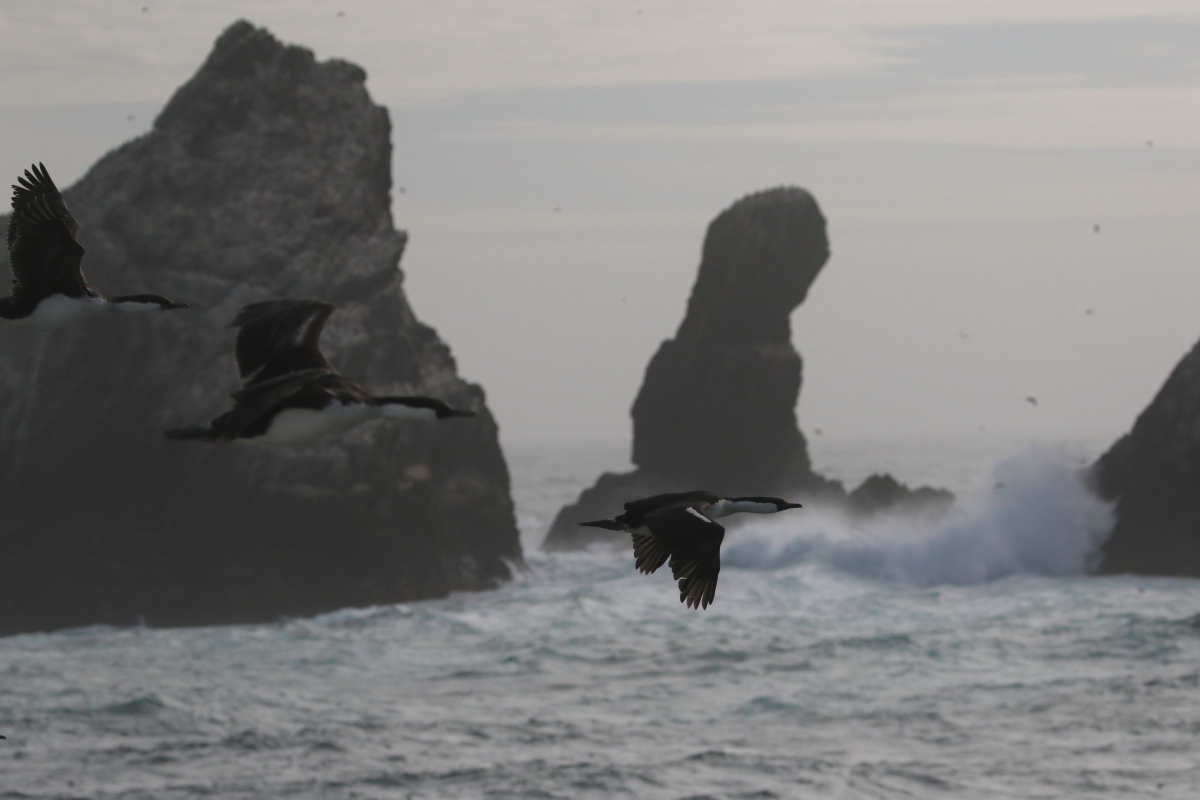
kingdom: Animalia
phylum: Chordata
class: Aves
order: Suliformes
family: Phalacrocoracidae
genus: Leucocarbo
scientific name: Leucocarbo atriceps
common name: Imperial shag
